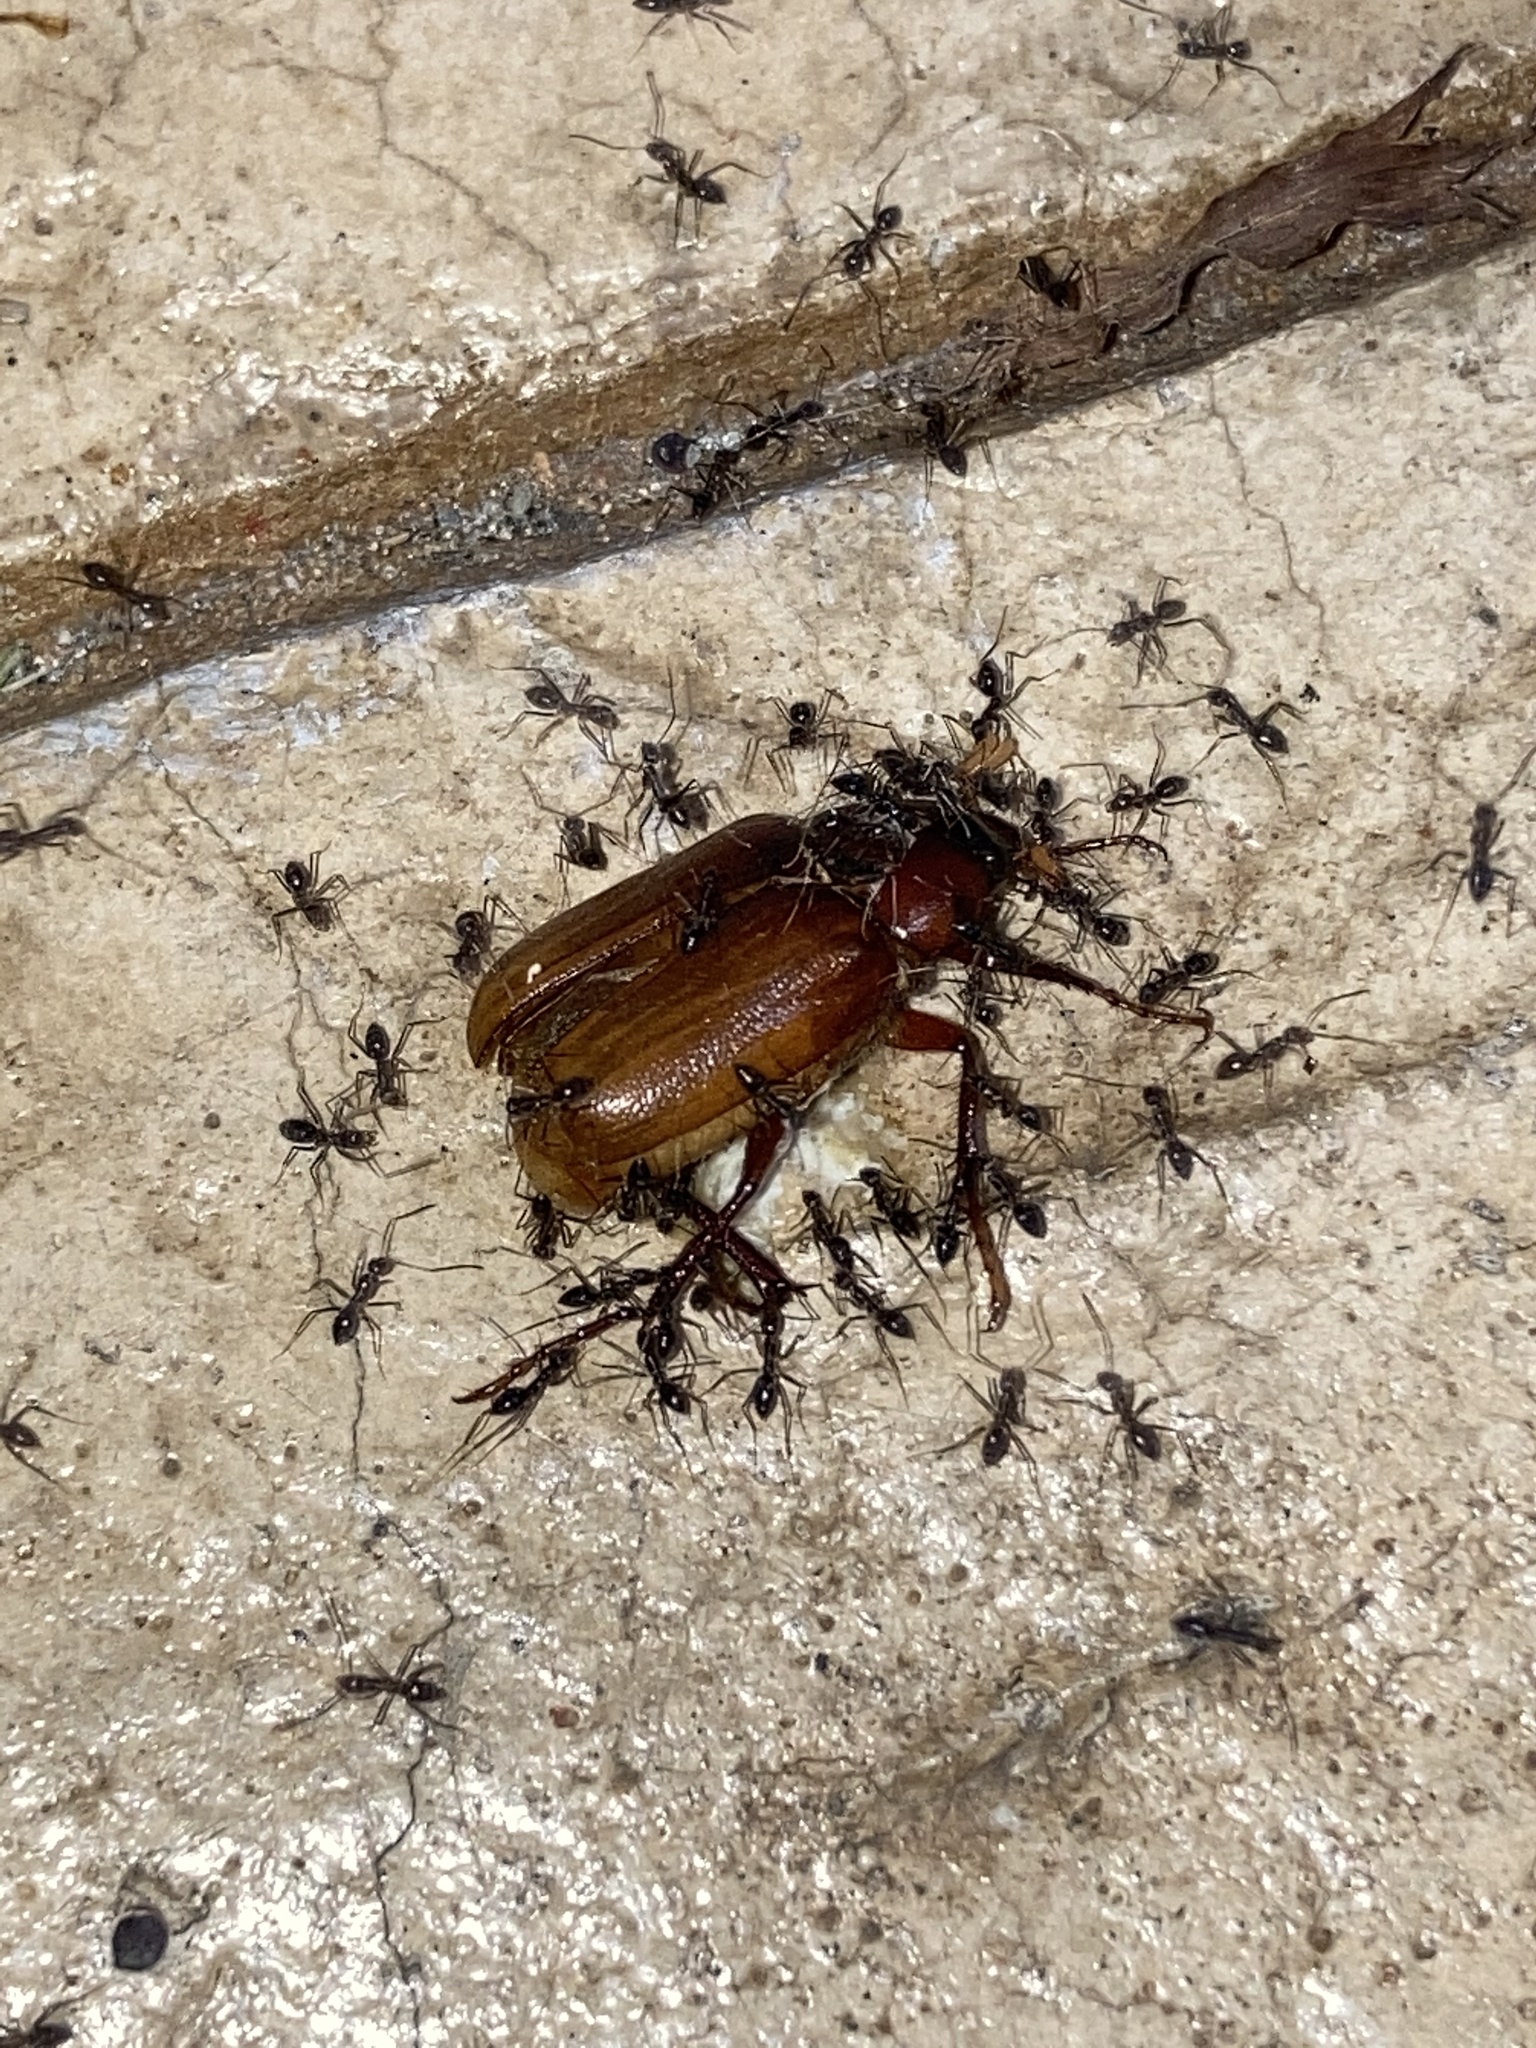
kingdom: Animalia
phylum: Arthropoda
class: Insecta
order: Hymenoptera
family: Formicidae
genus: Paratrechina
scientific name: Paratrechina longicornis
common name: Longhorned crazy ant
